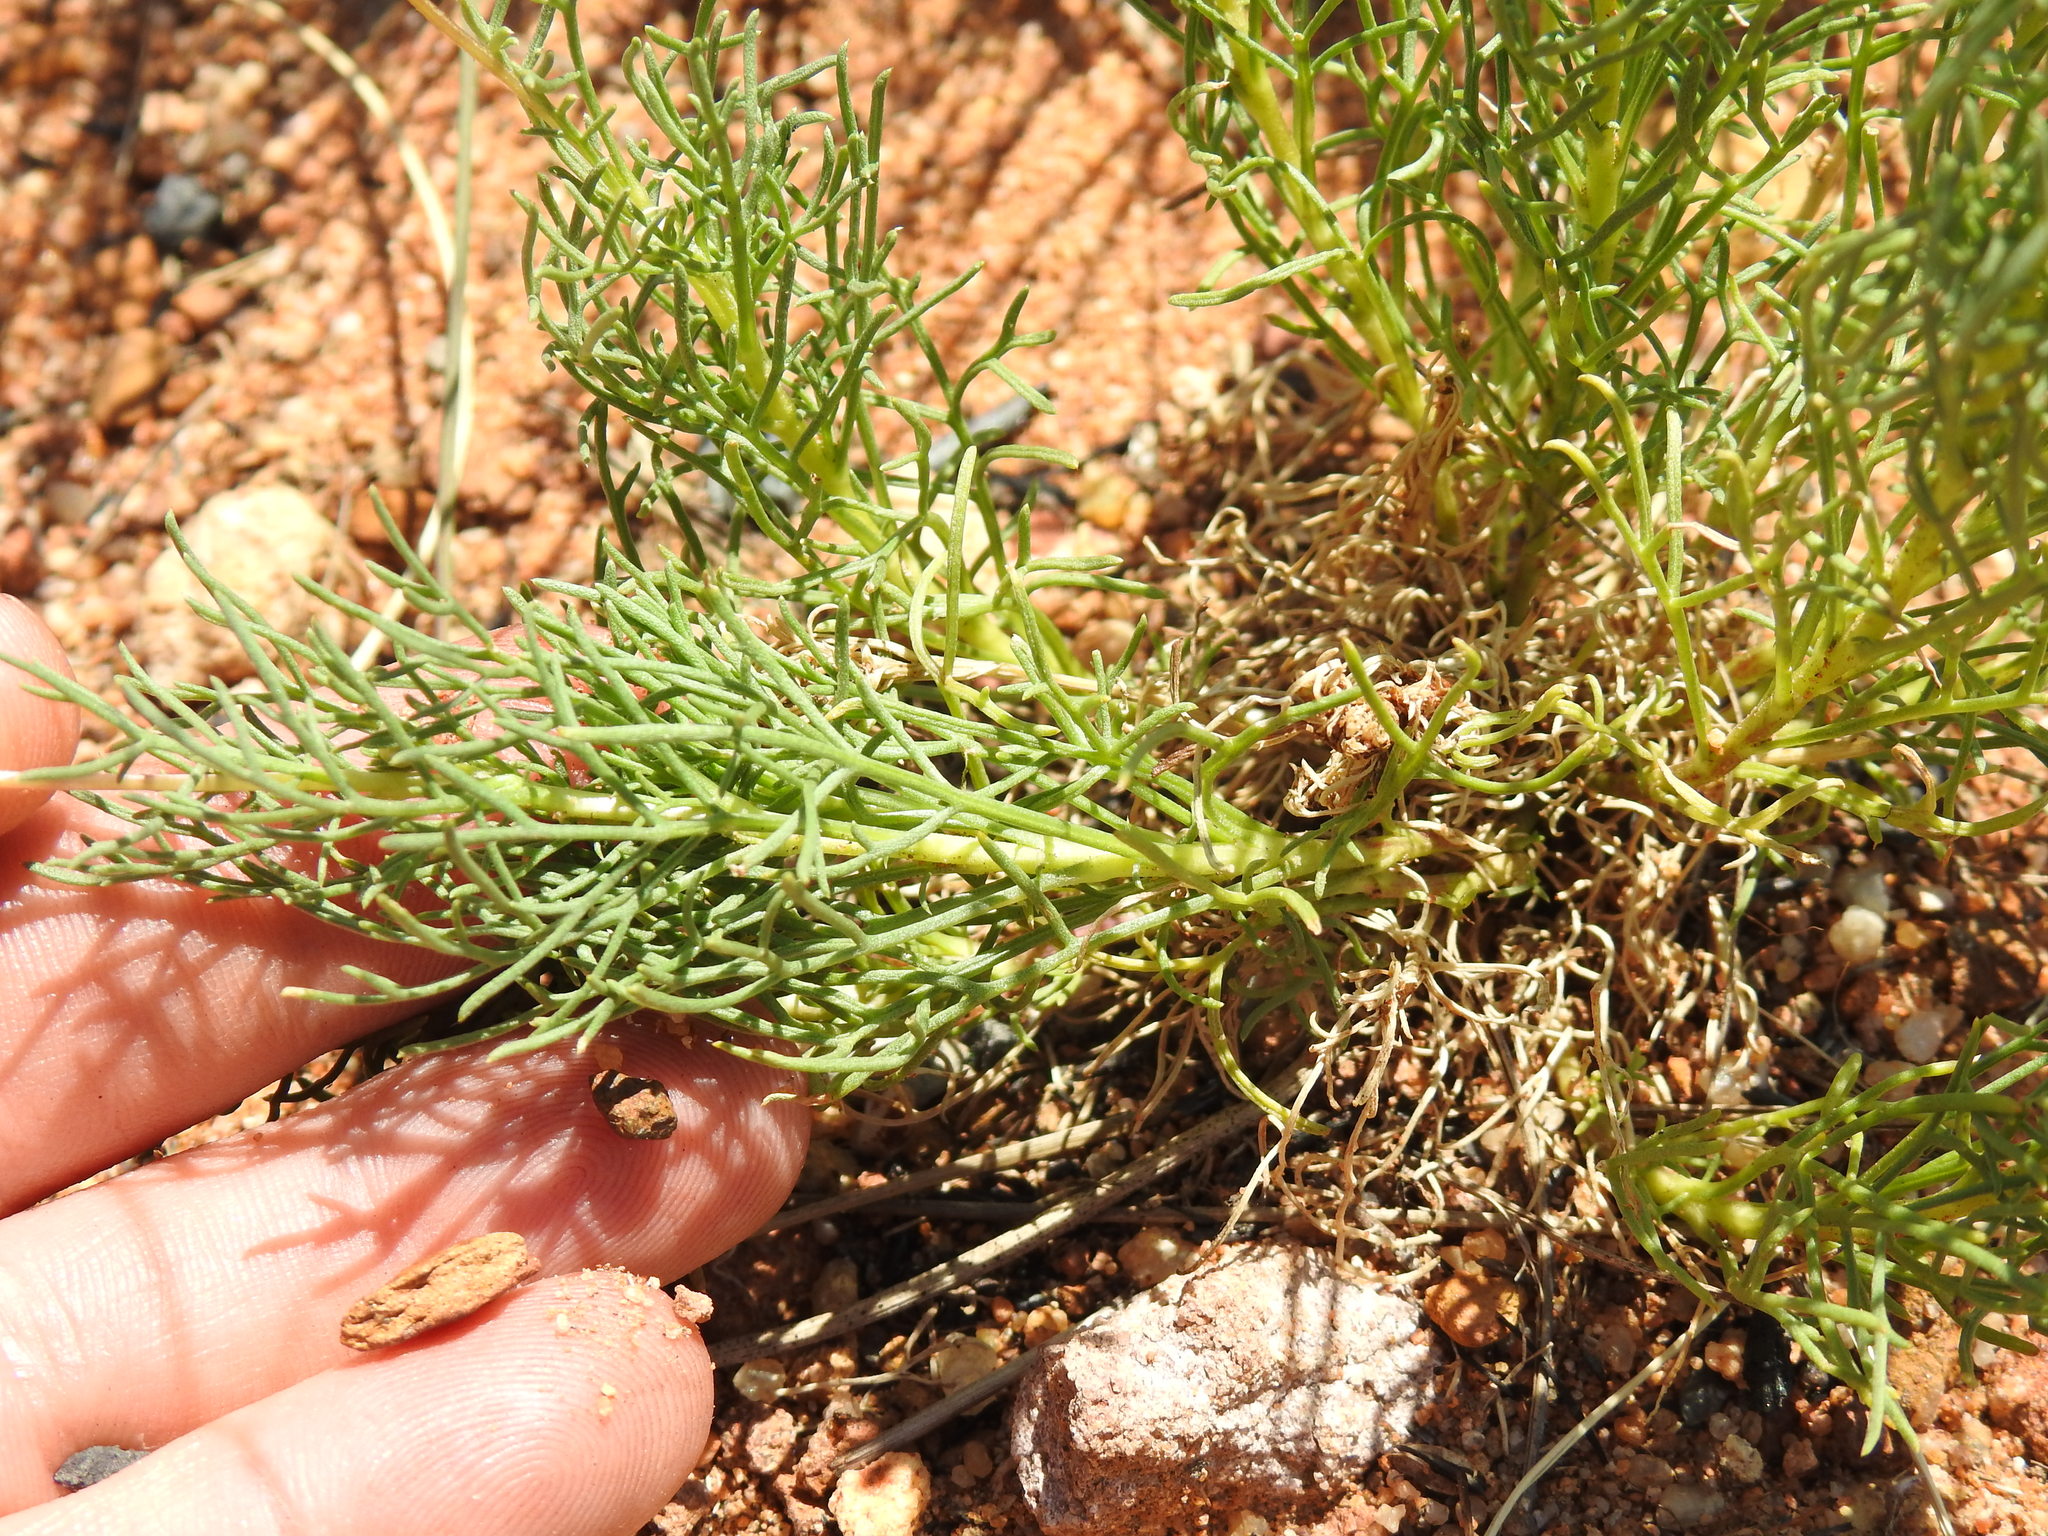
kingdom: Plantae
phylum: Tracheophyta
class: Magnoliopsida
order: Asterales
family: Asteraceae
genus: Ursinia
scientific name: Ursinia nana
